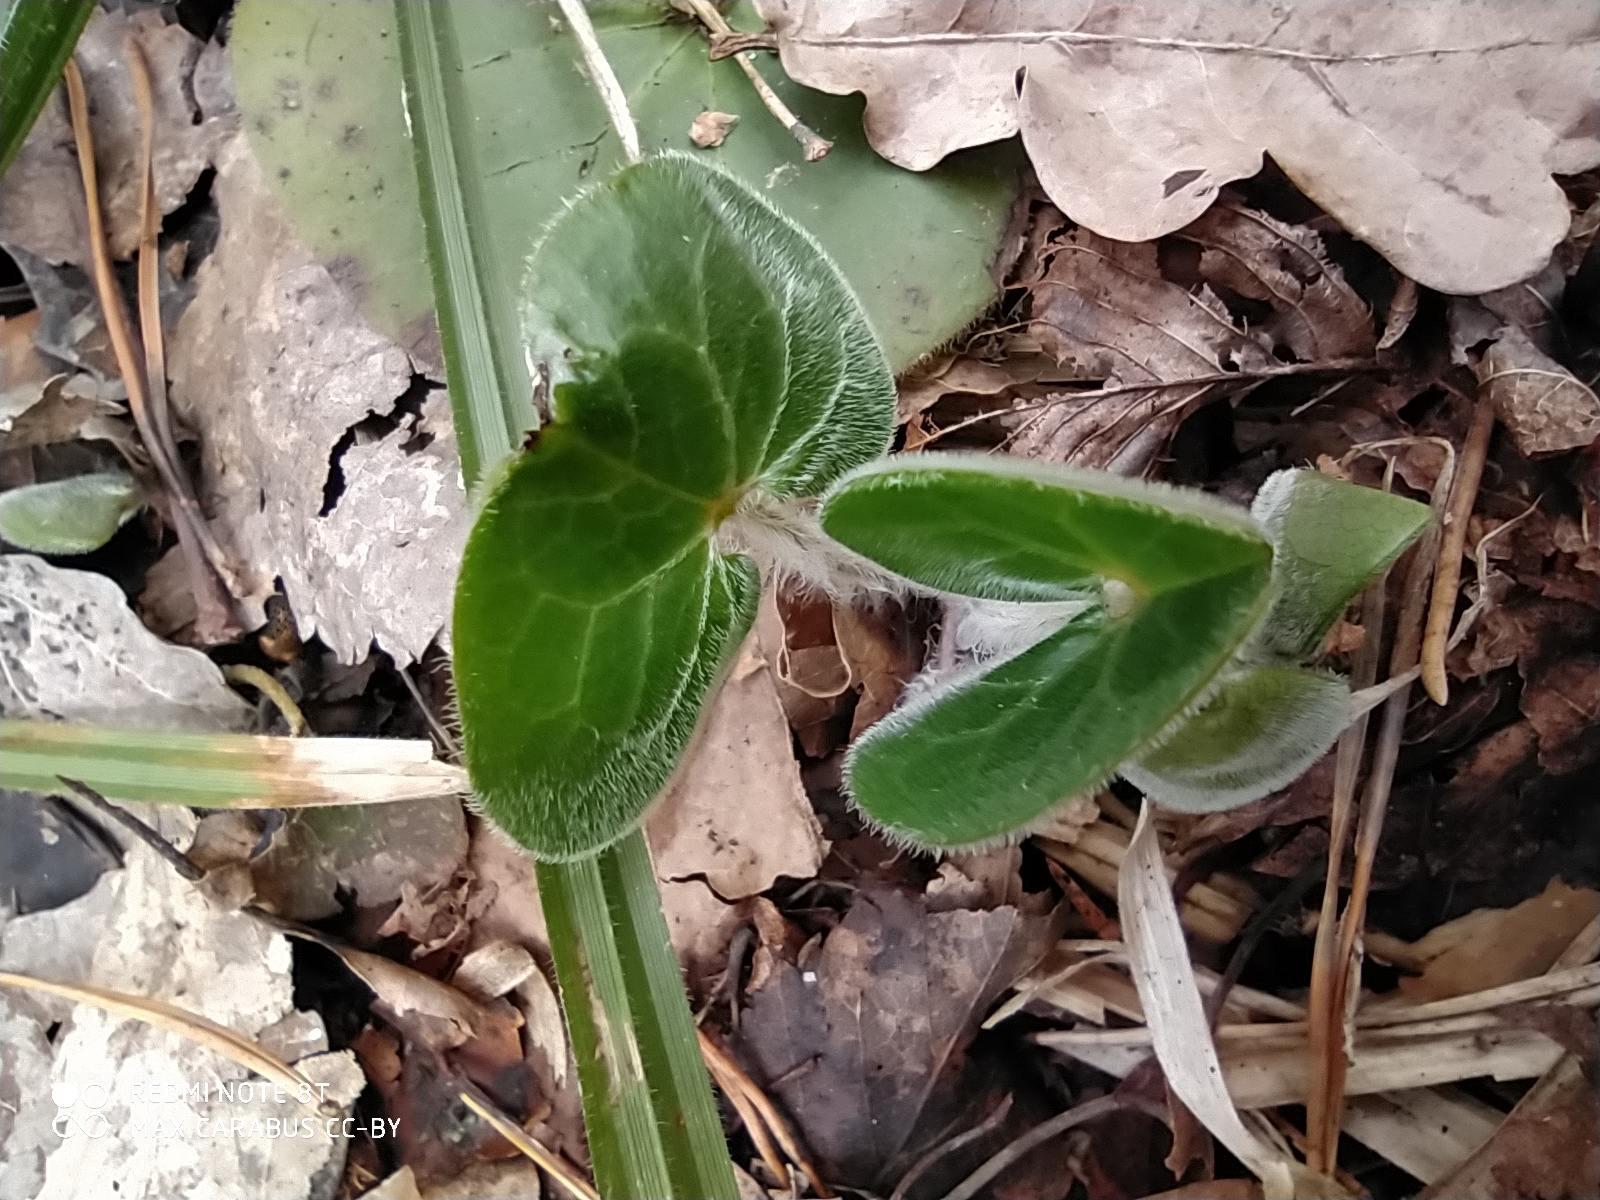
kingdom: Plantae
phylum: Tracheophyta
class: Magnoliopsida
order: Piperales
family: Aristolochiaceae
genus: Asarum
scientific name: Asarum europaeum
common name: Asarabacca
